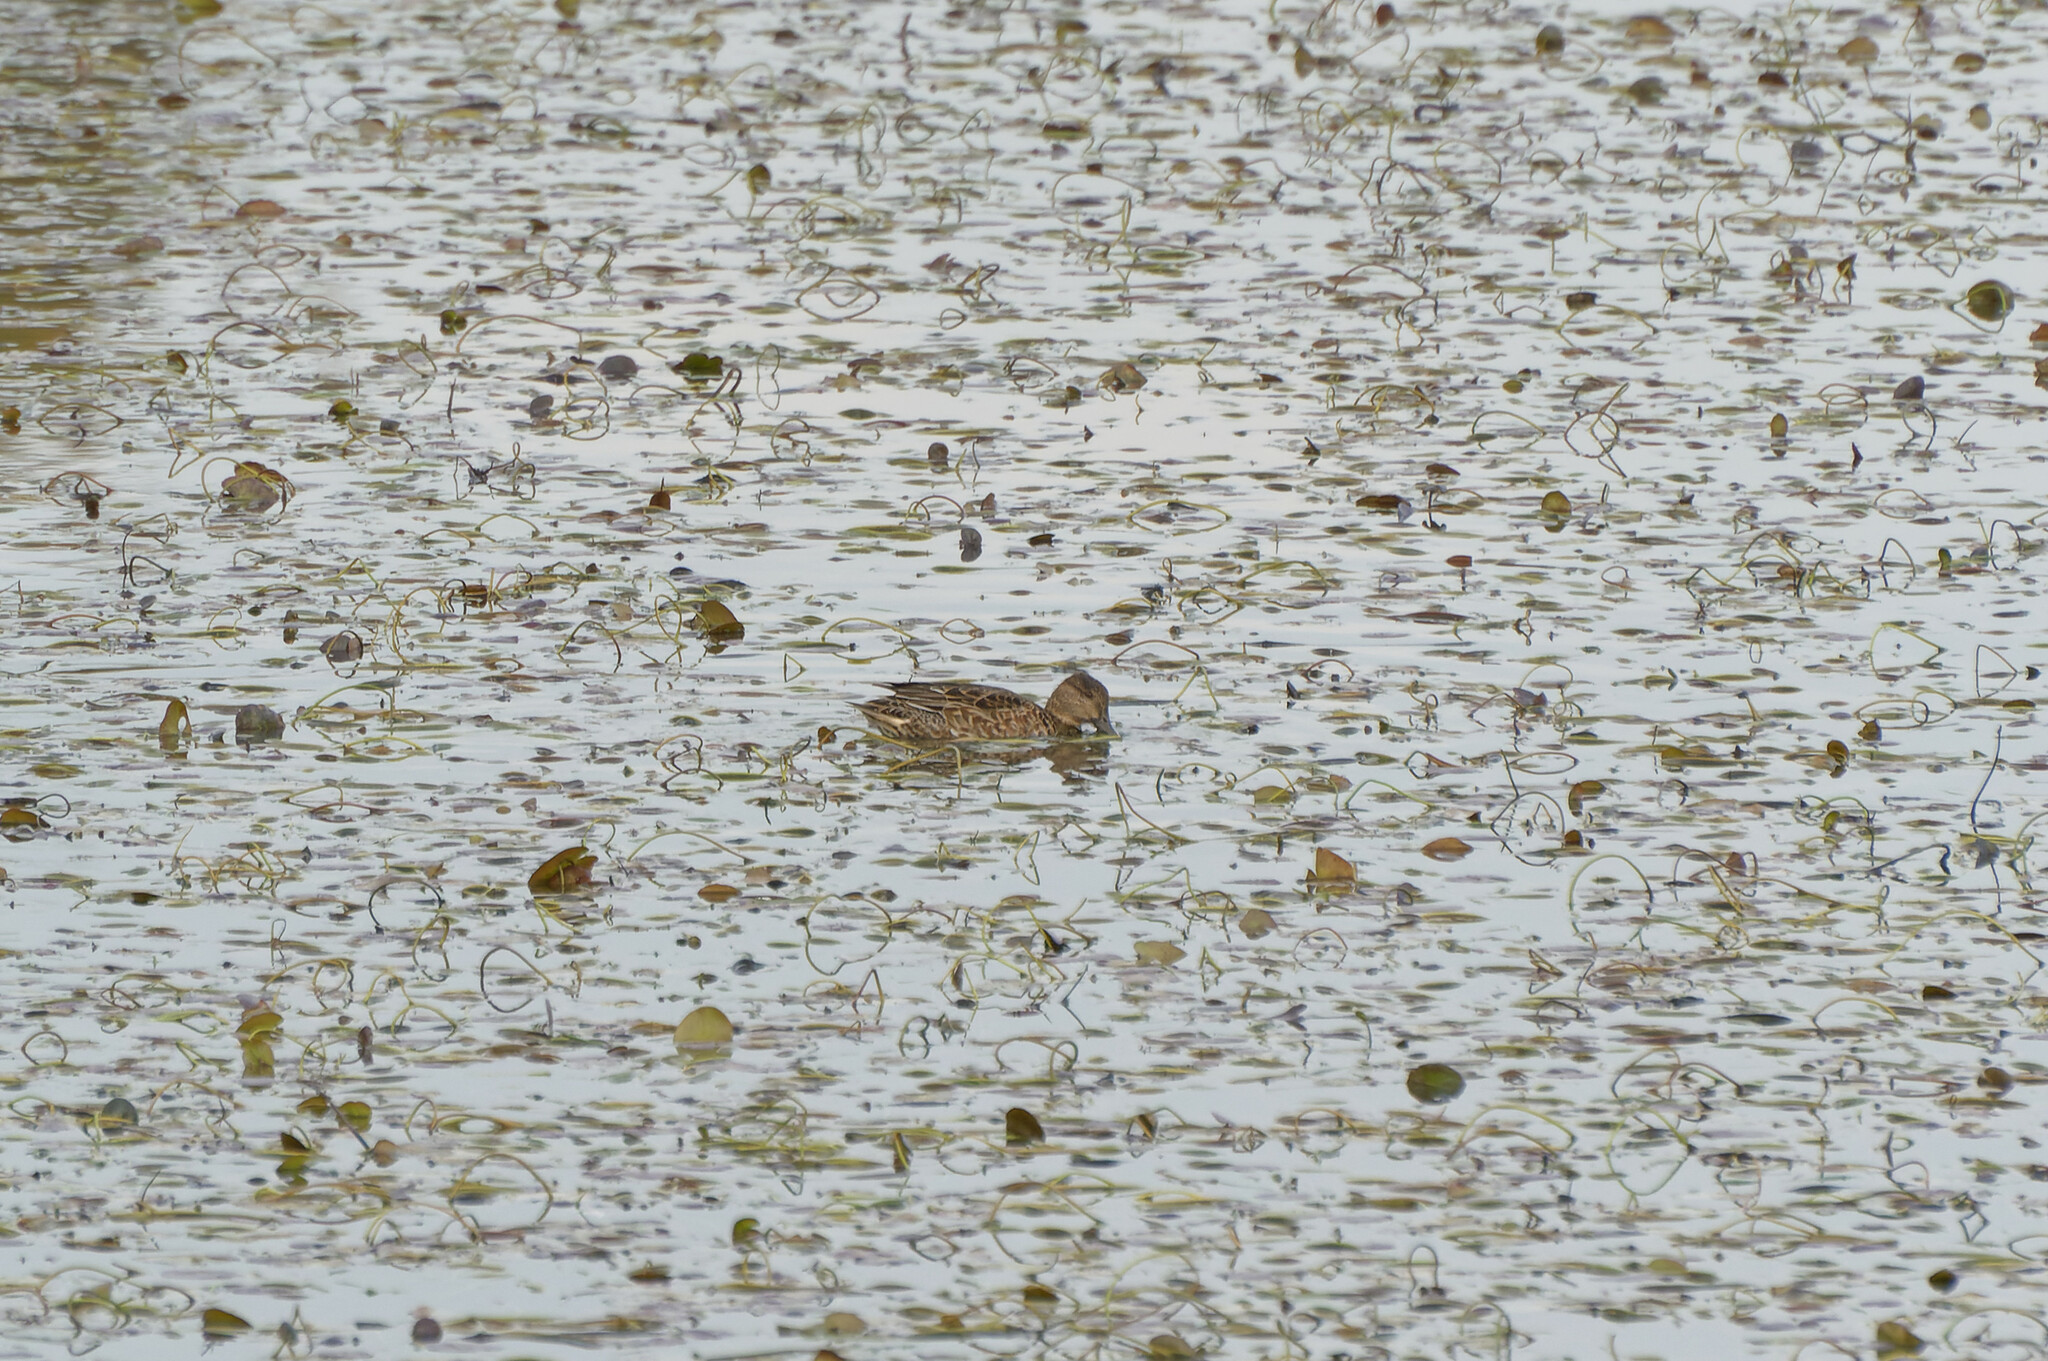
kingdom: Animalia
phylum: Chordata
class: Aves
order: Anseriformes
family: Anatidae
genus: Anas
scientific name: Anas crecca
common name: Eurasian teal
